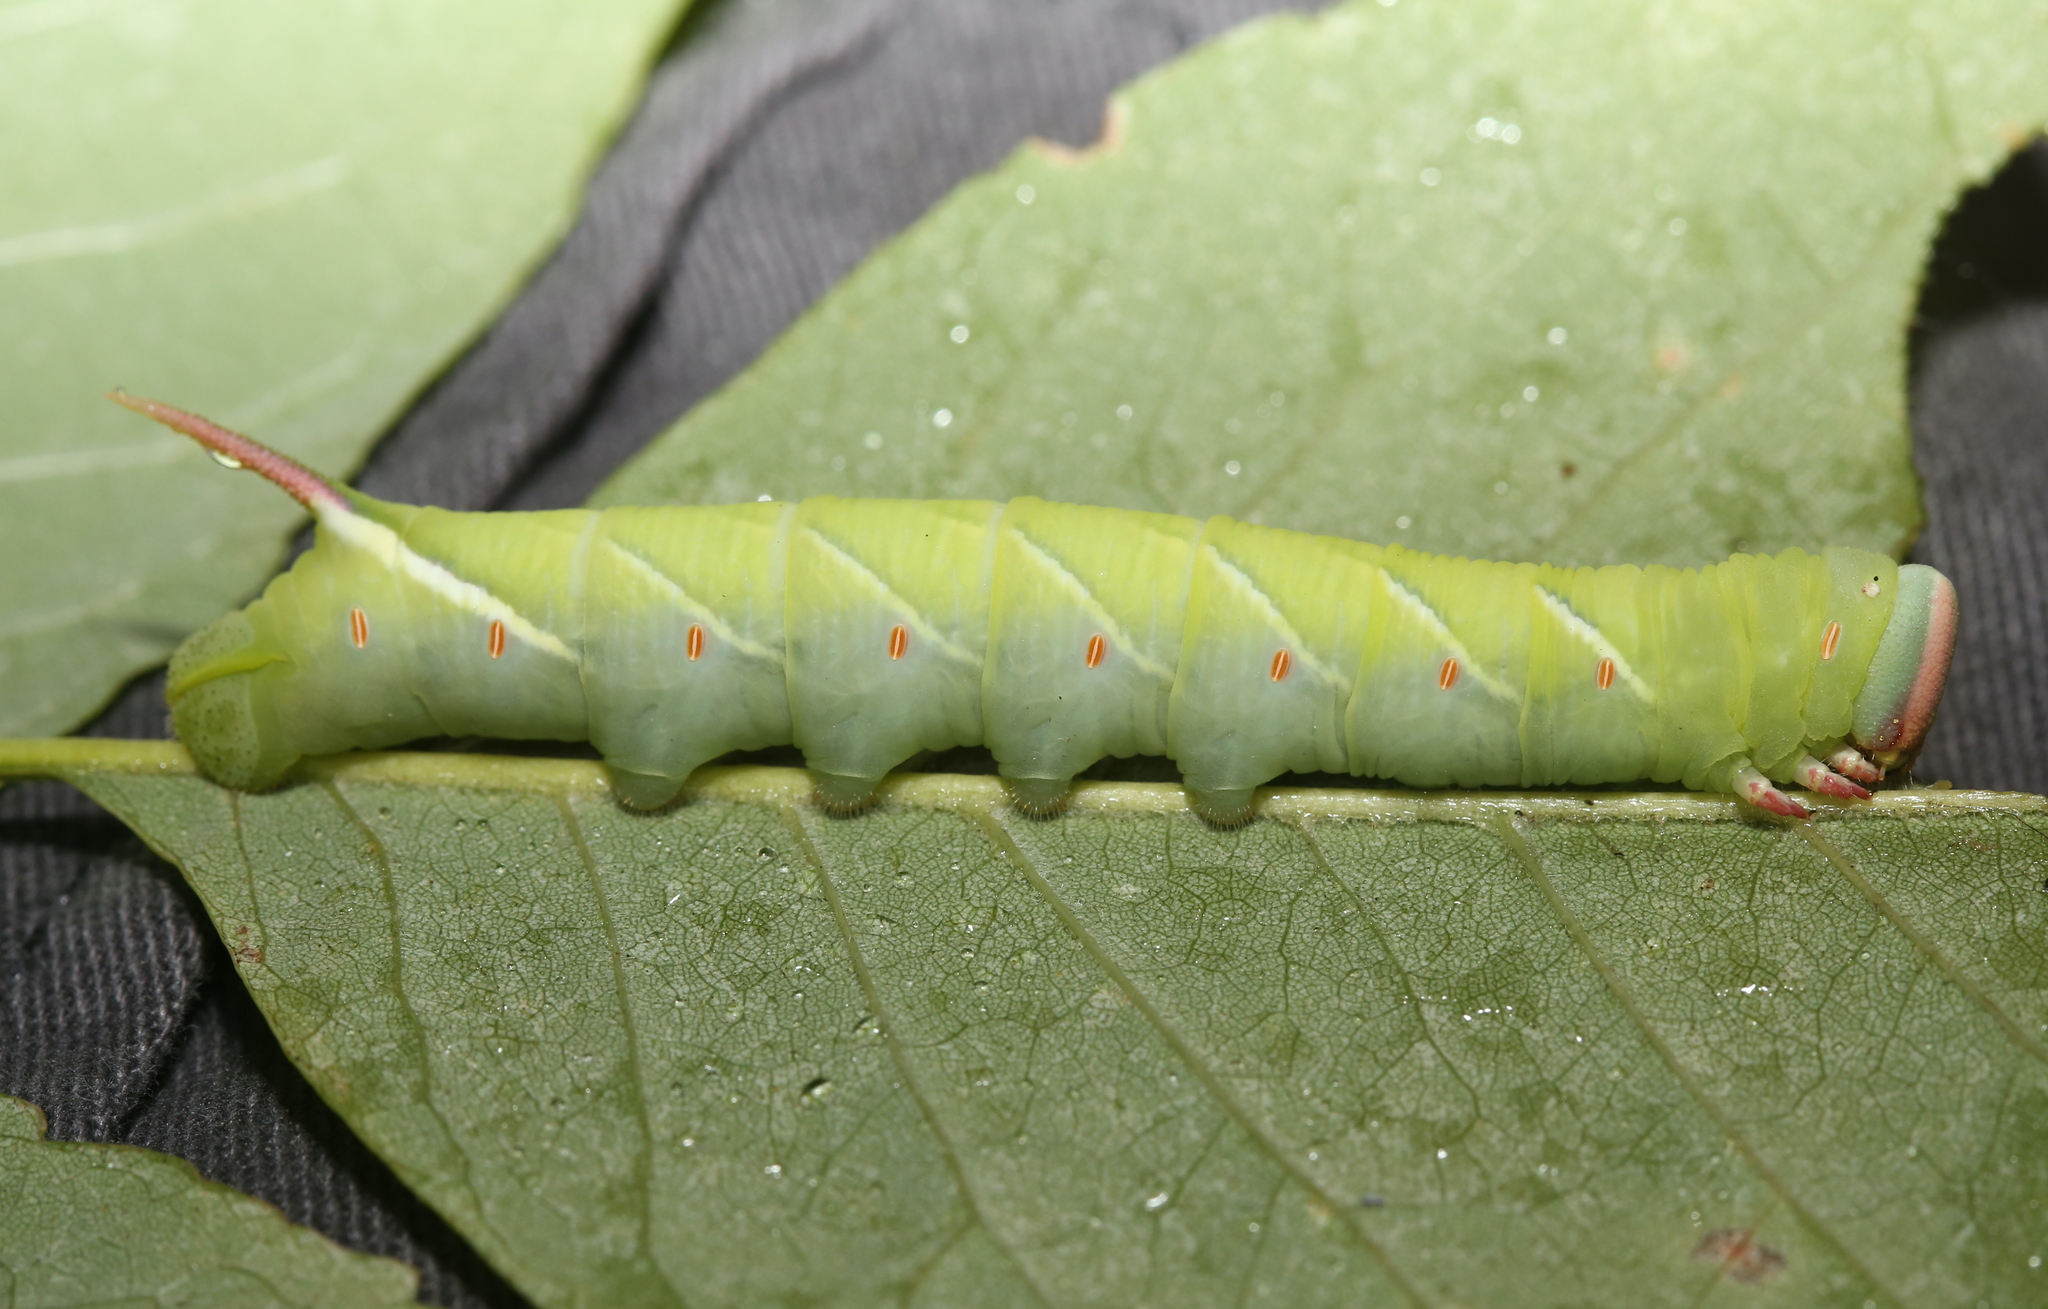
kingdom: Animalia
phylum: Arthropoda
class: Insecta
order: Lepidoptera
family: Sphingidae
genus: Ceratomia
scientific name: Ceratomia undulosa
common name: Waved sphinx
